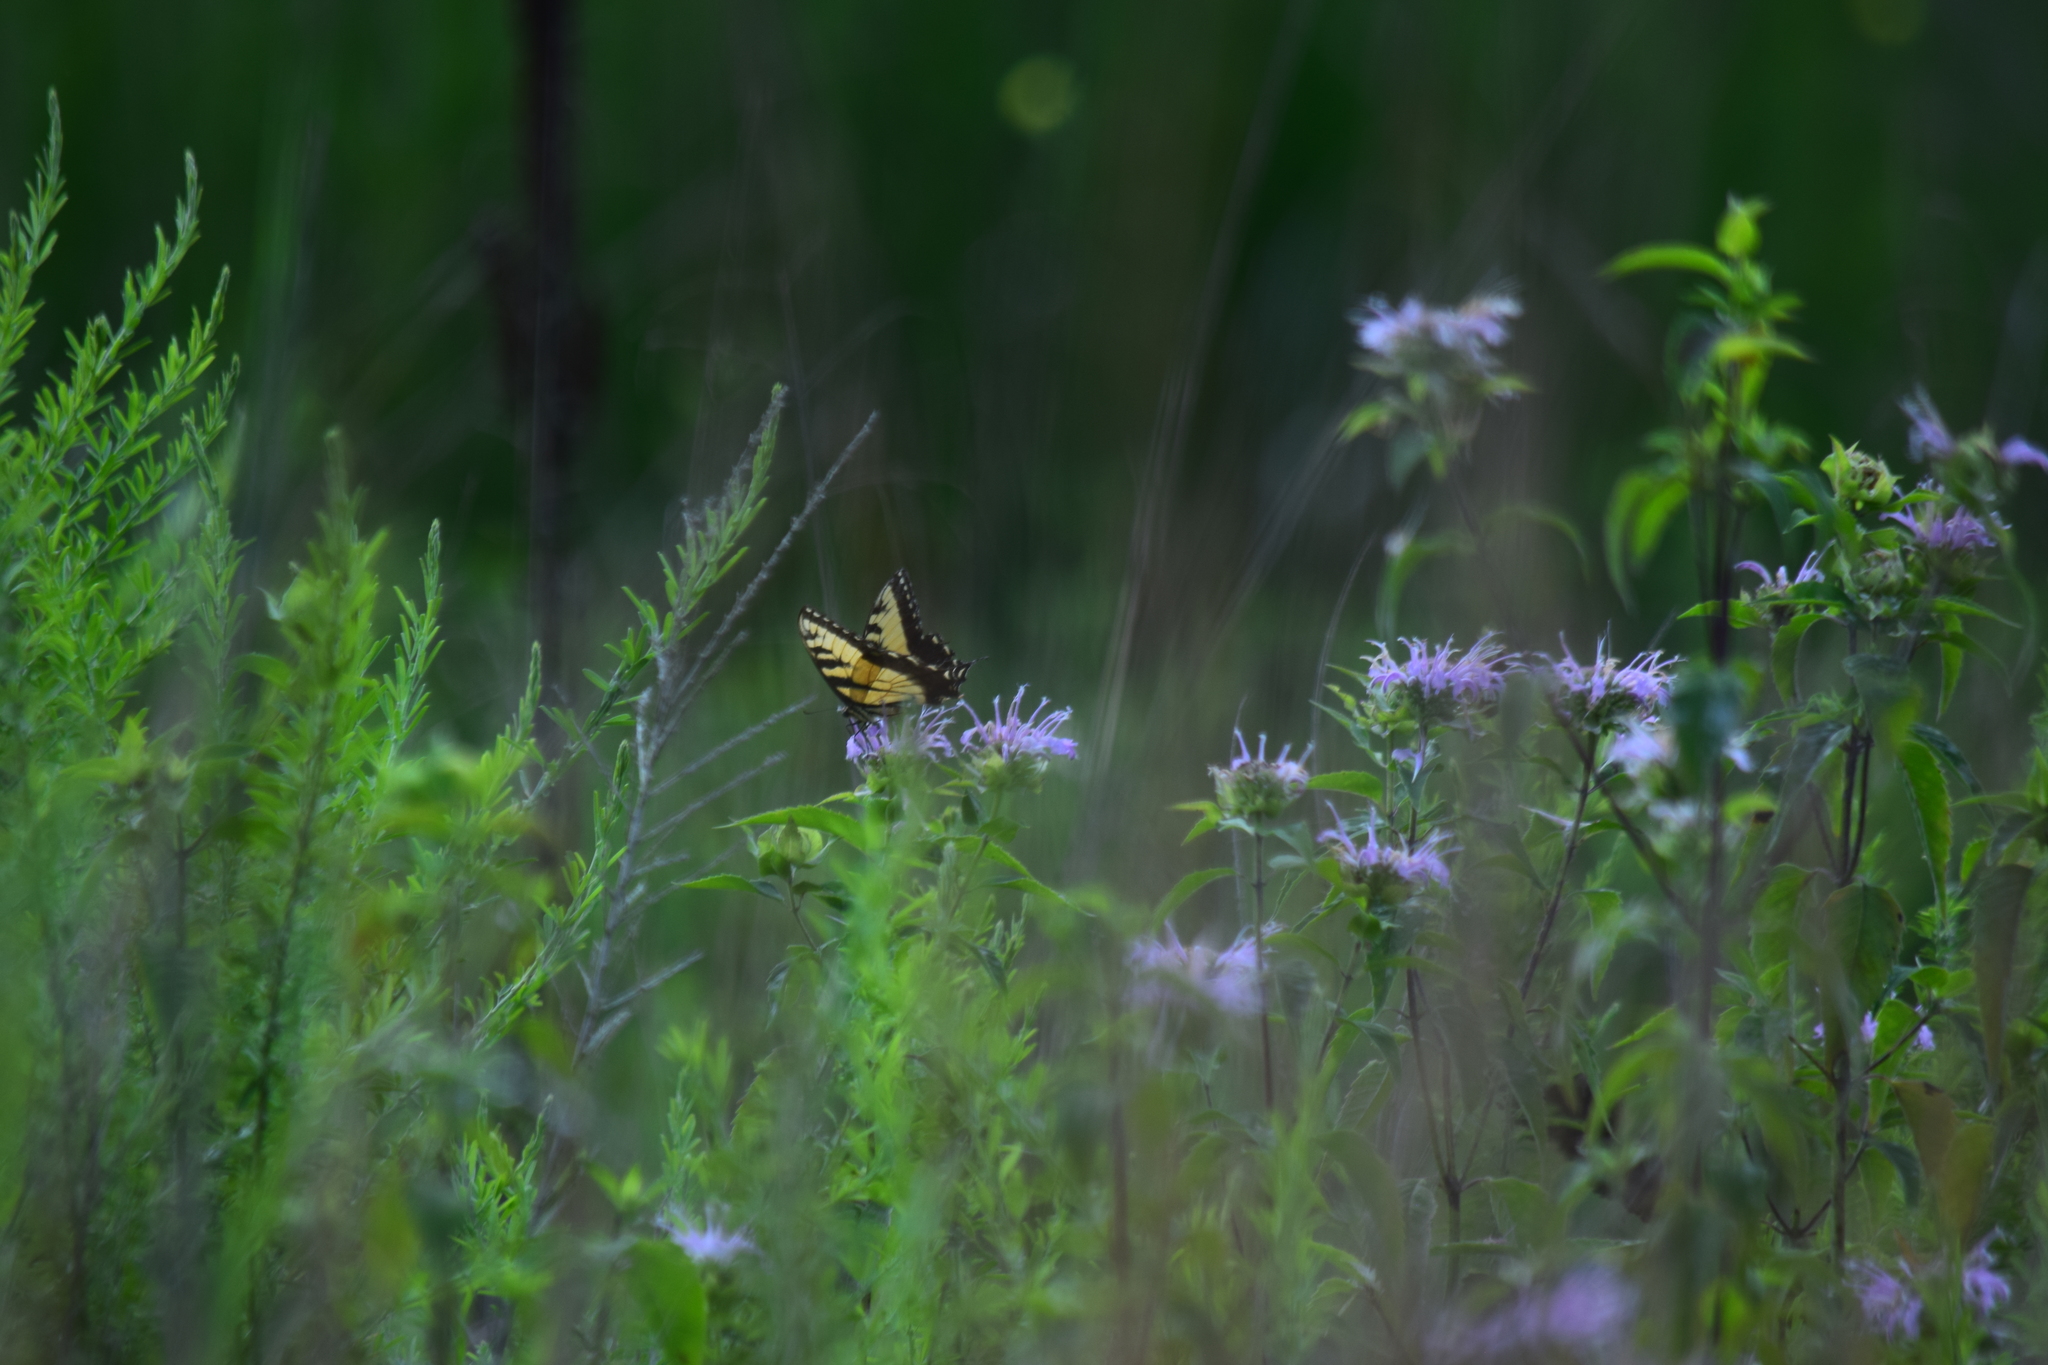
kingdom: Animalia
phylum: Arthropoda
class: Insecta
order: Lepidoptera
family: Papilionidae
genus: Papilio
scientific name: Papilio glaucus
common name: Tiger swallowtail
